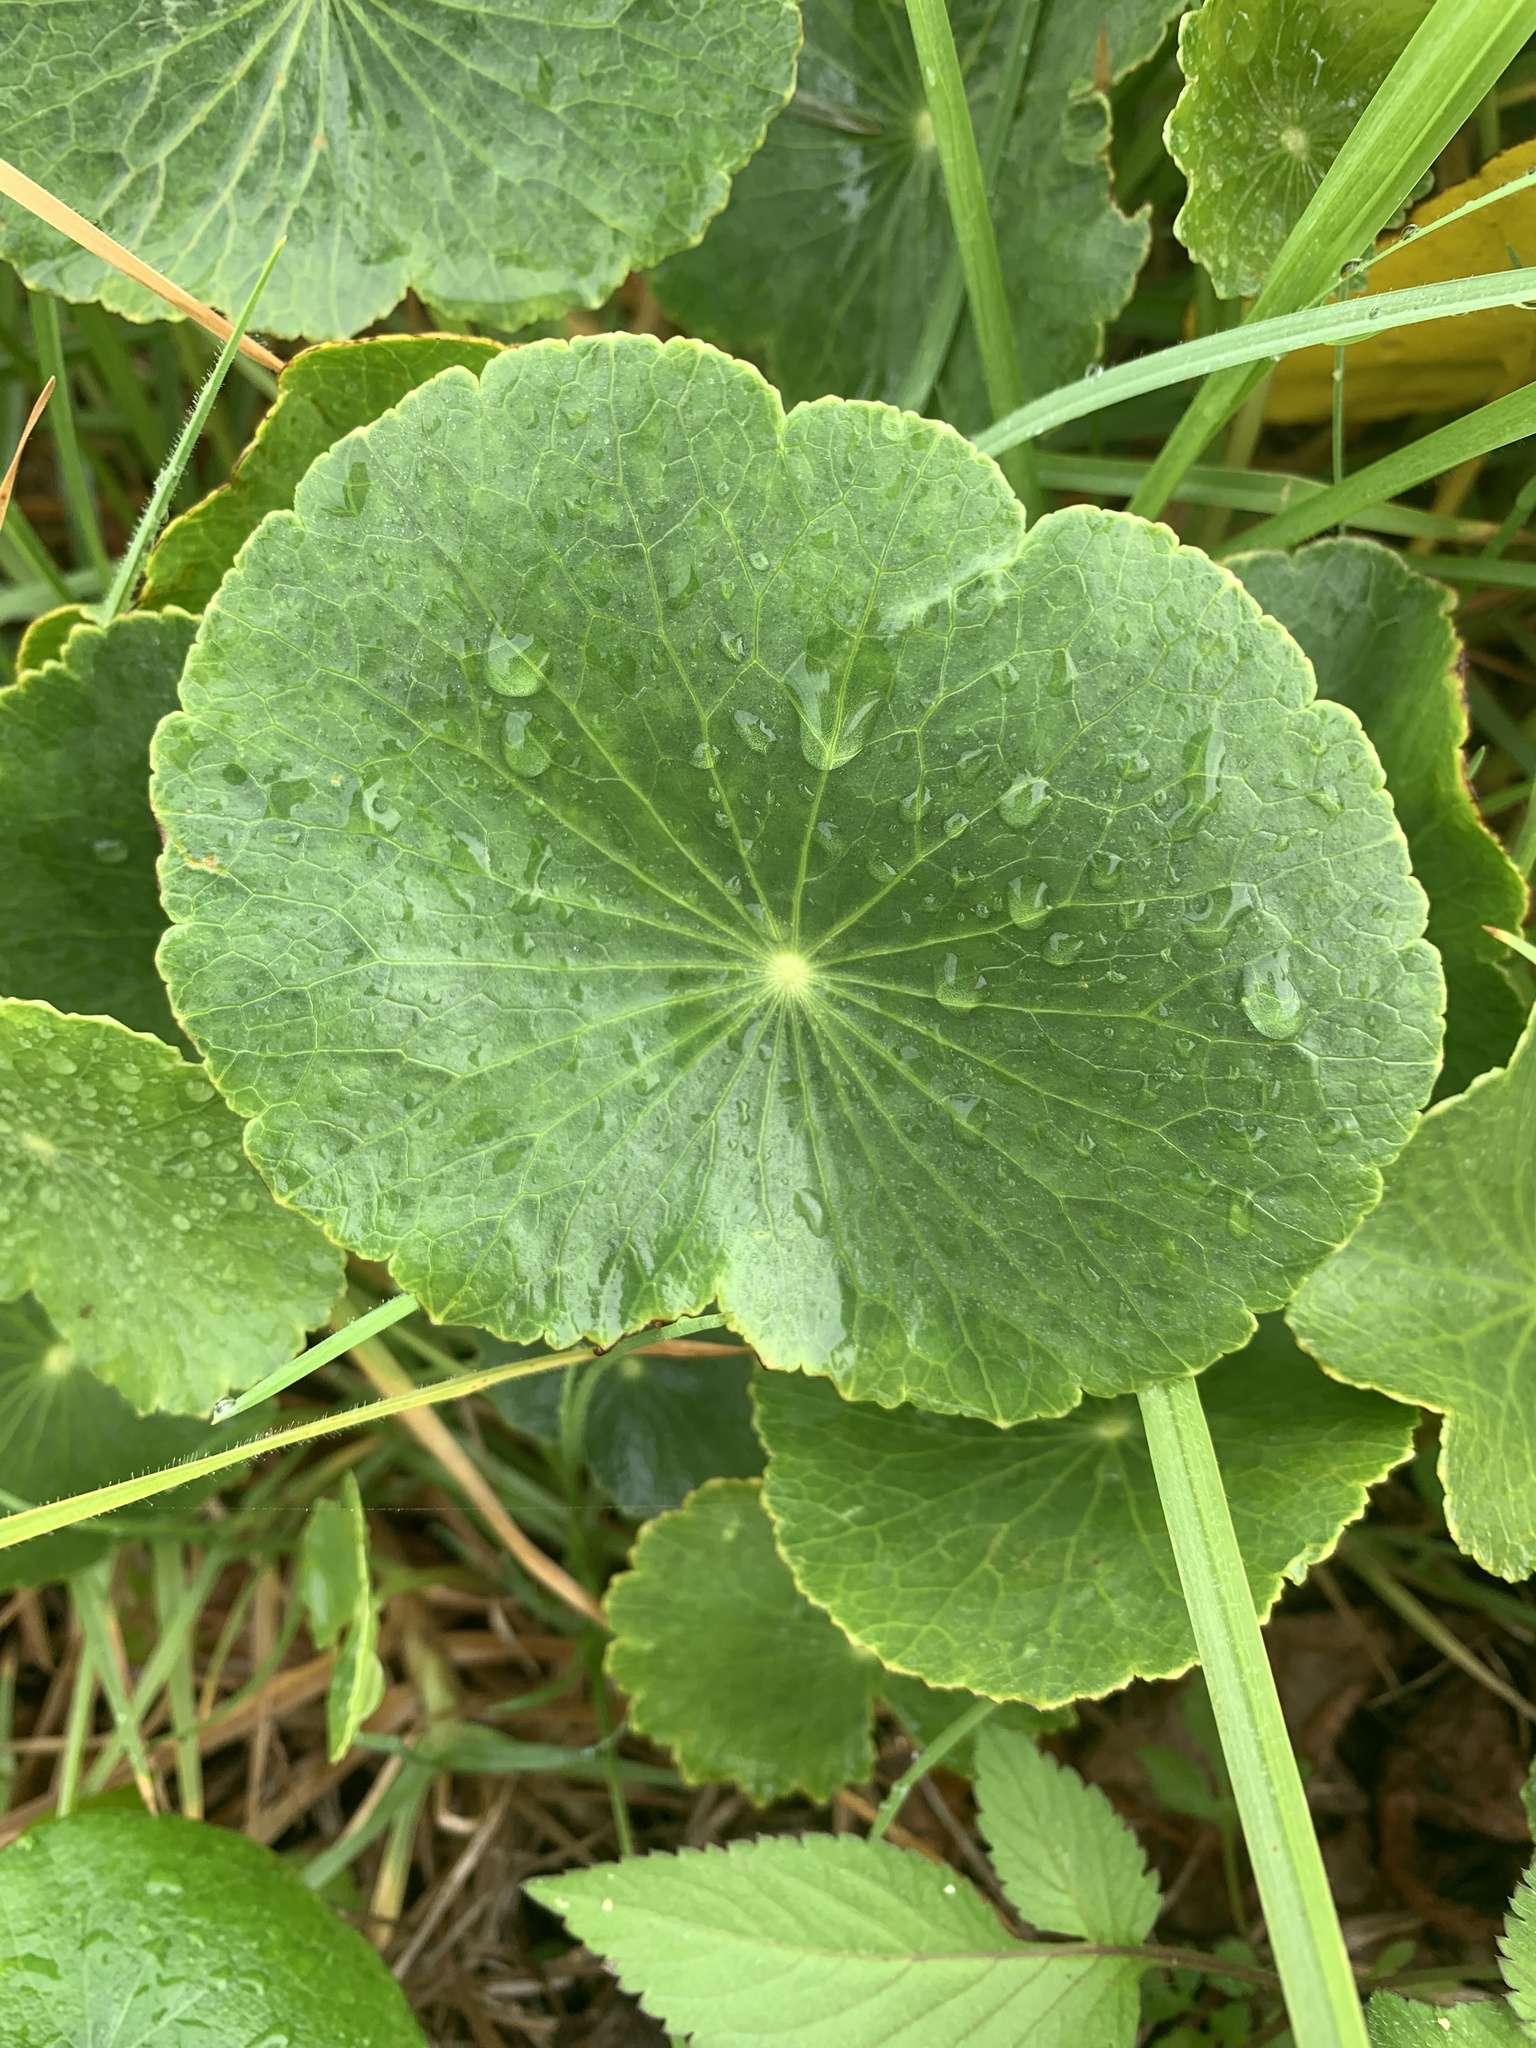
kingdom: Plantae
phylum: Tracheophyta
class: Magnoliopsida
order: Apiales
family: Araliaceae
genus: Hydrocotyle
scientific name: Hydrocotyle bonariensis
